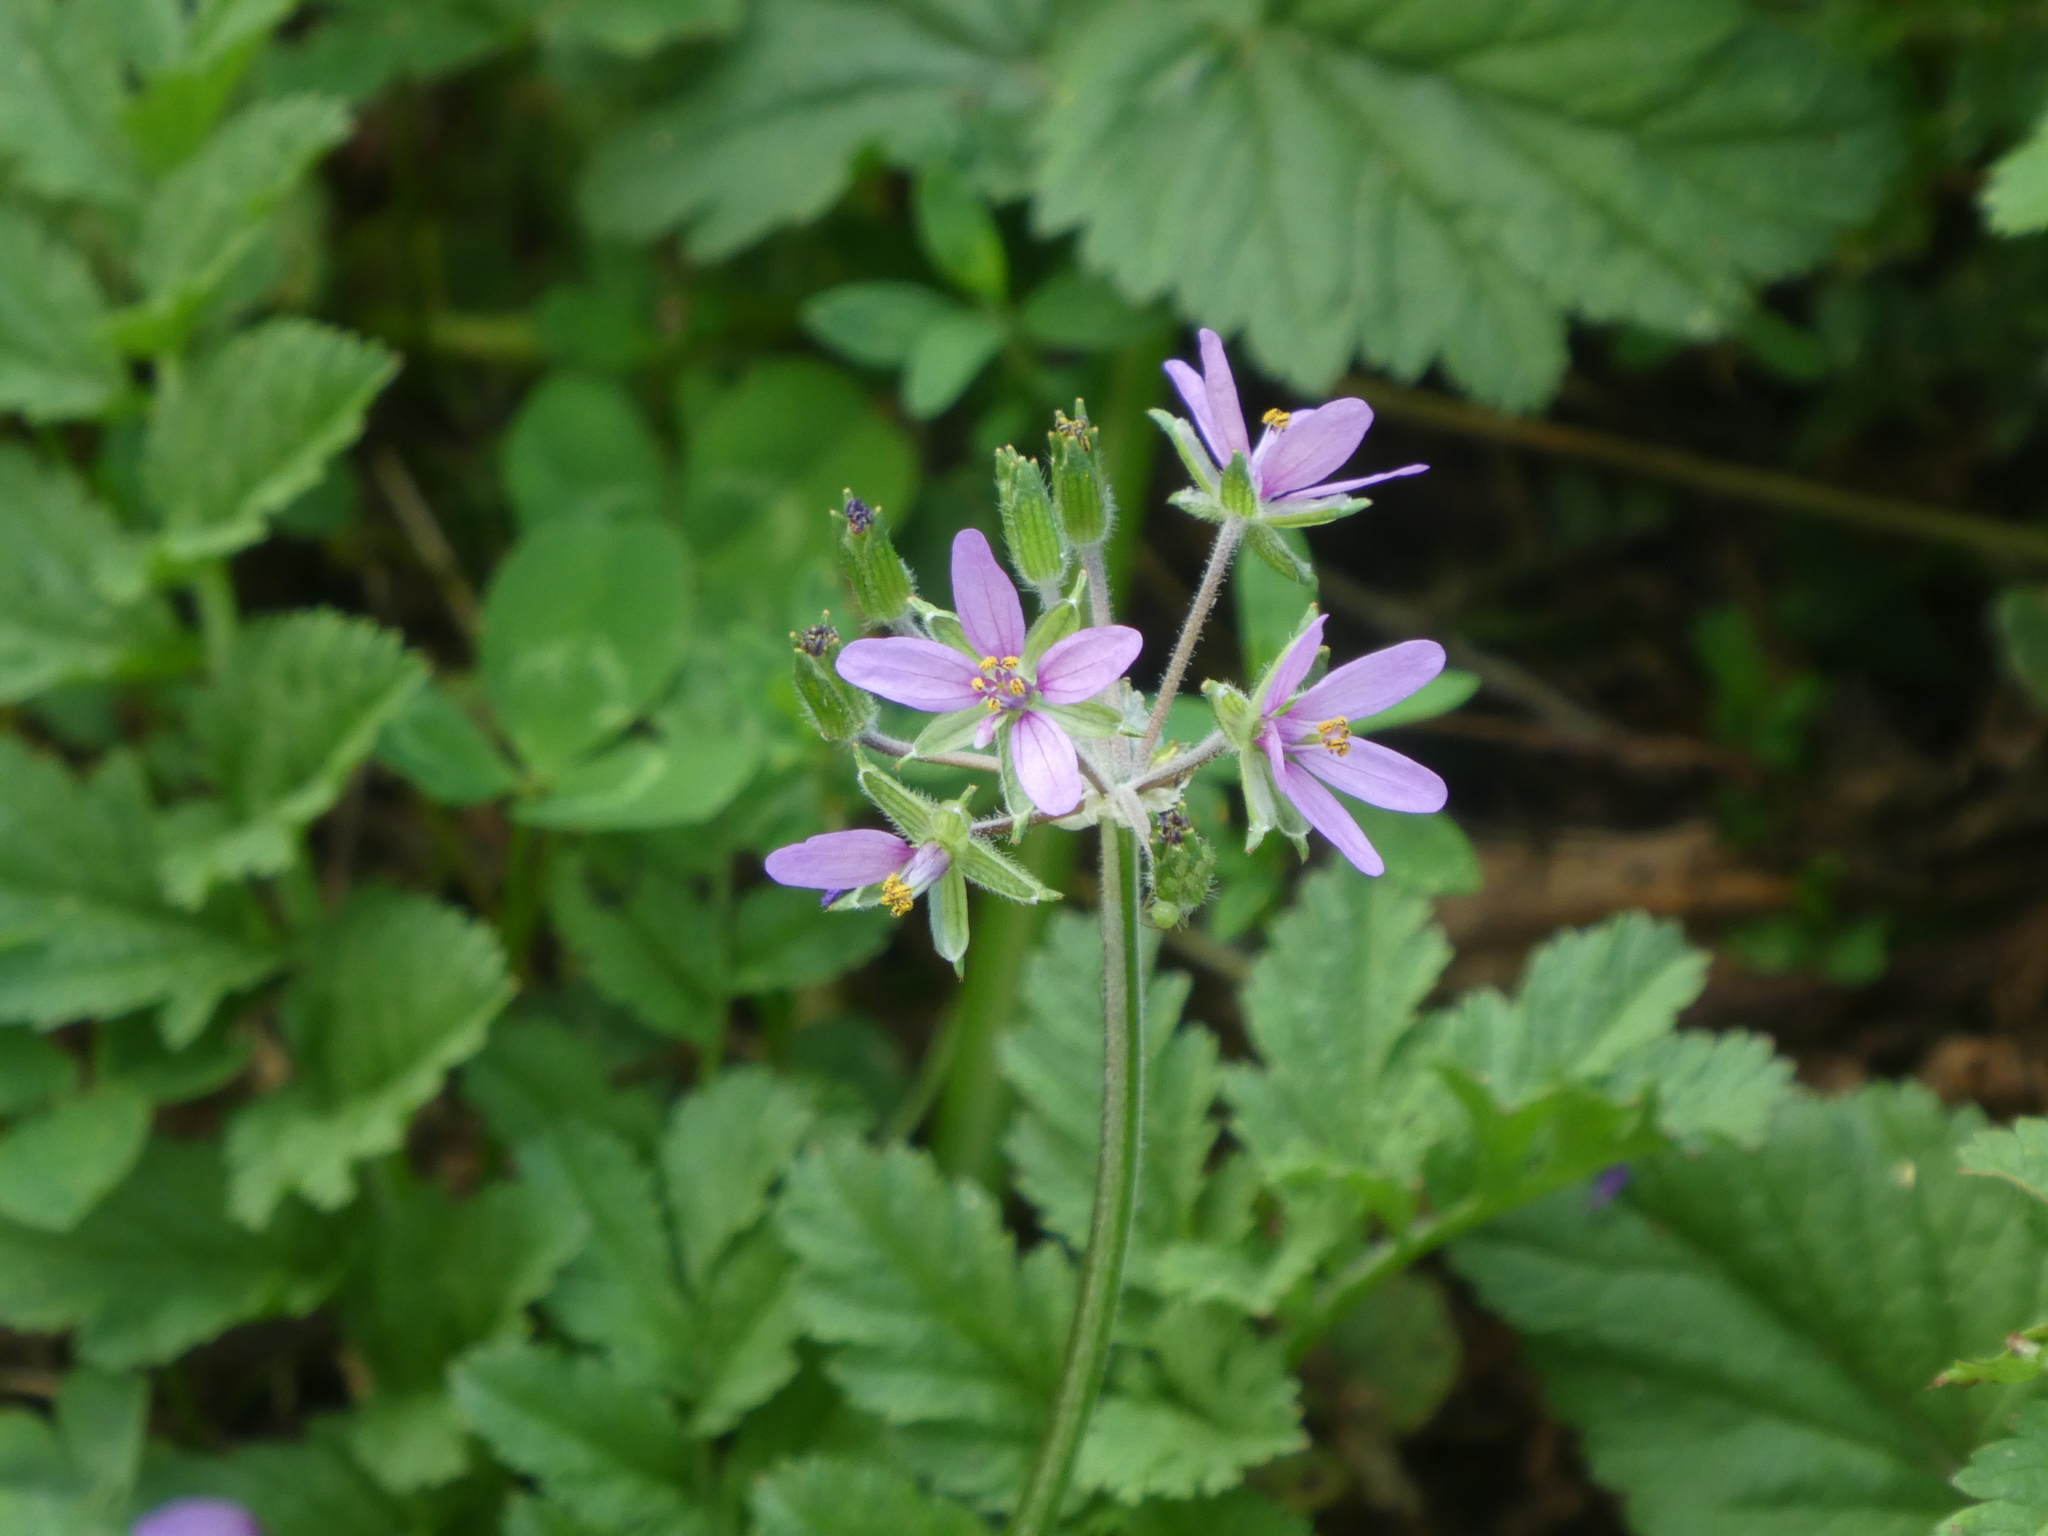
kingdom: Plantae
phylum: Tracheophyta
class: Magnoliopsida
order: Geraniales
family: Geraniaceae
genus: Erodium
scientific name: Erodium moschatum
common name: Musk stork's-bill
